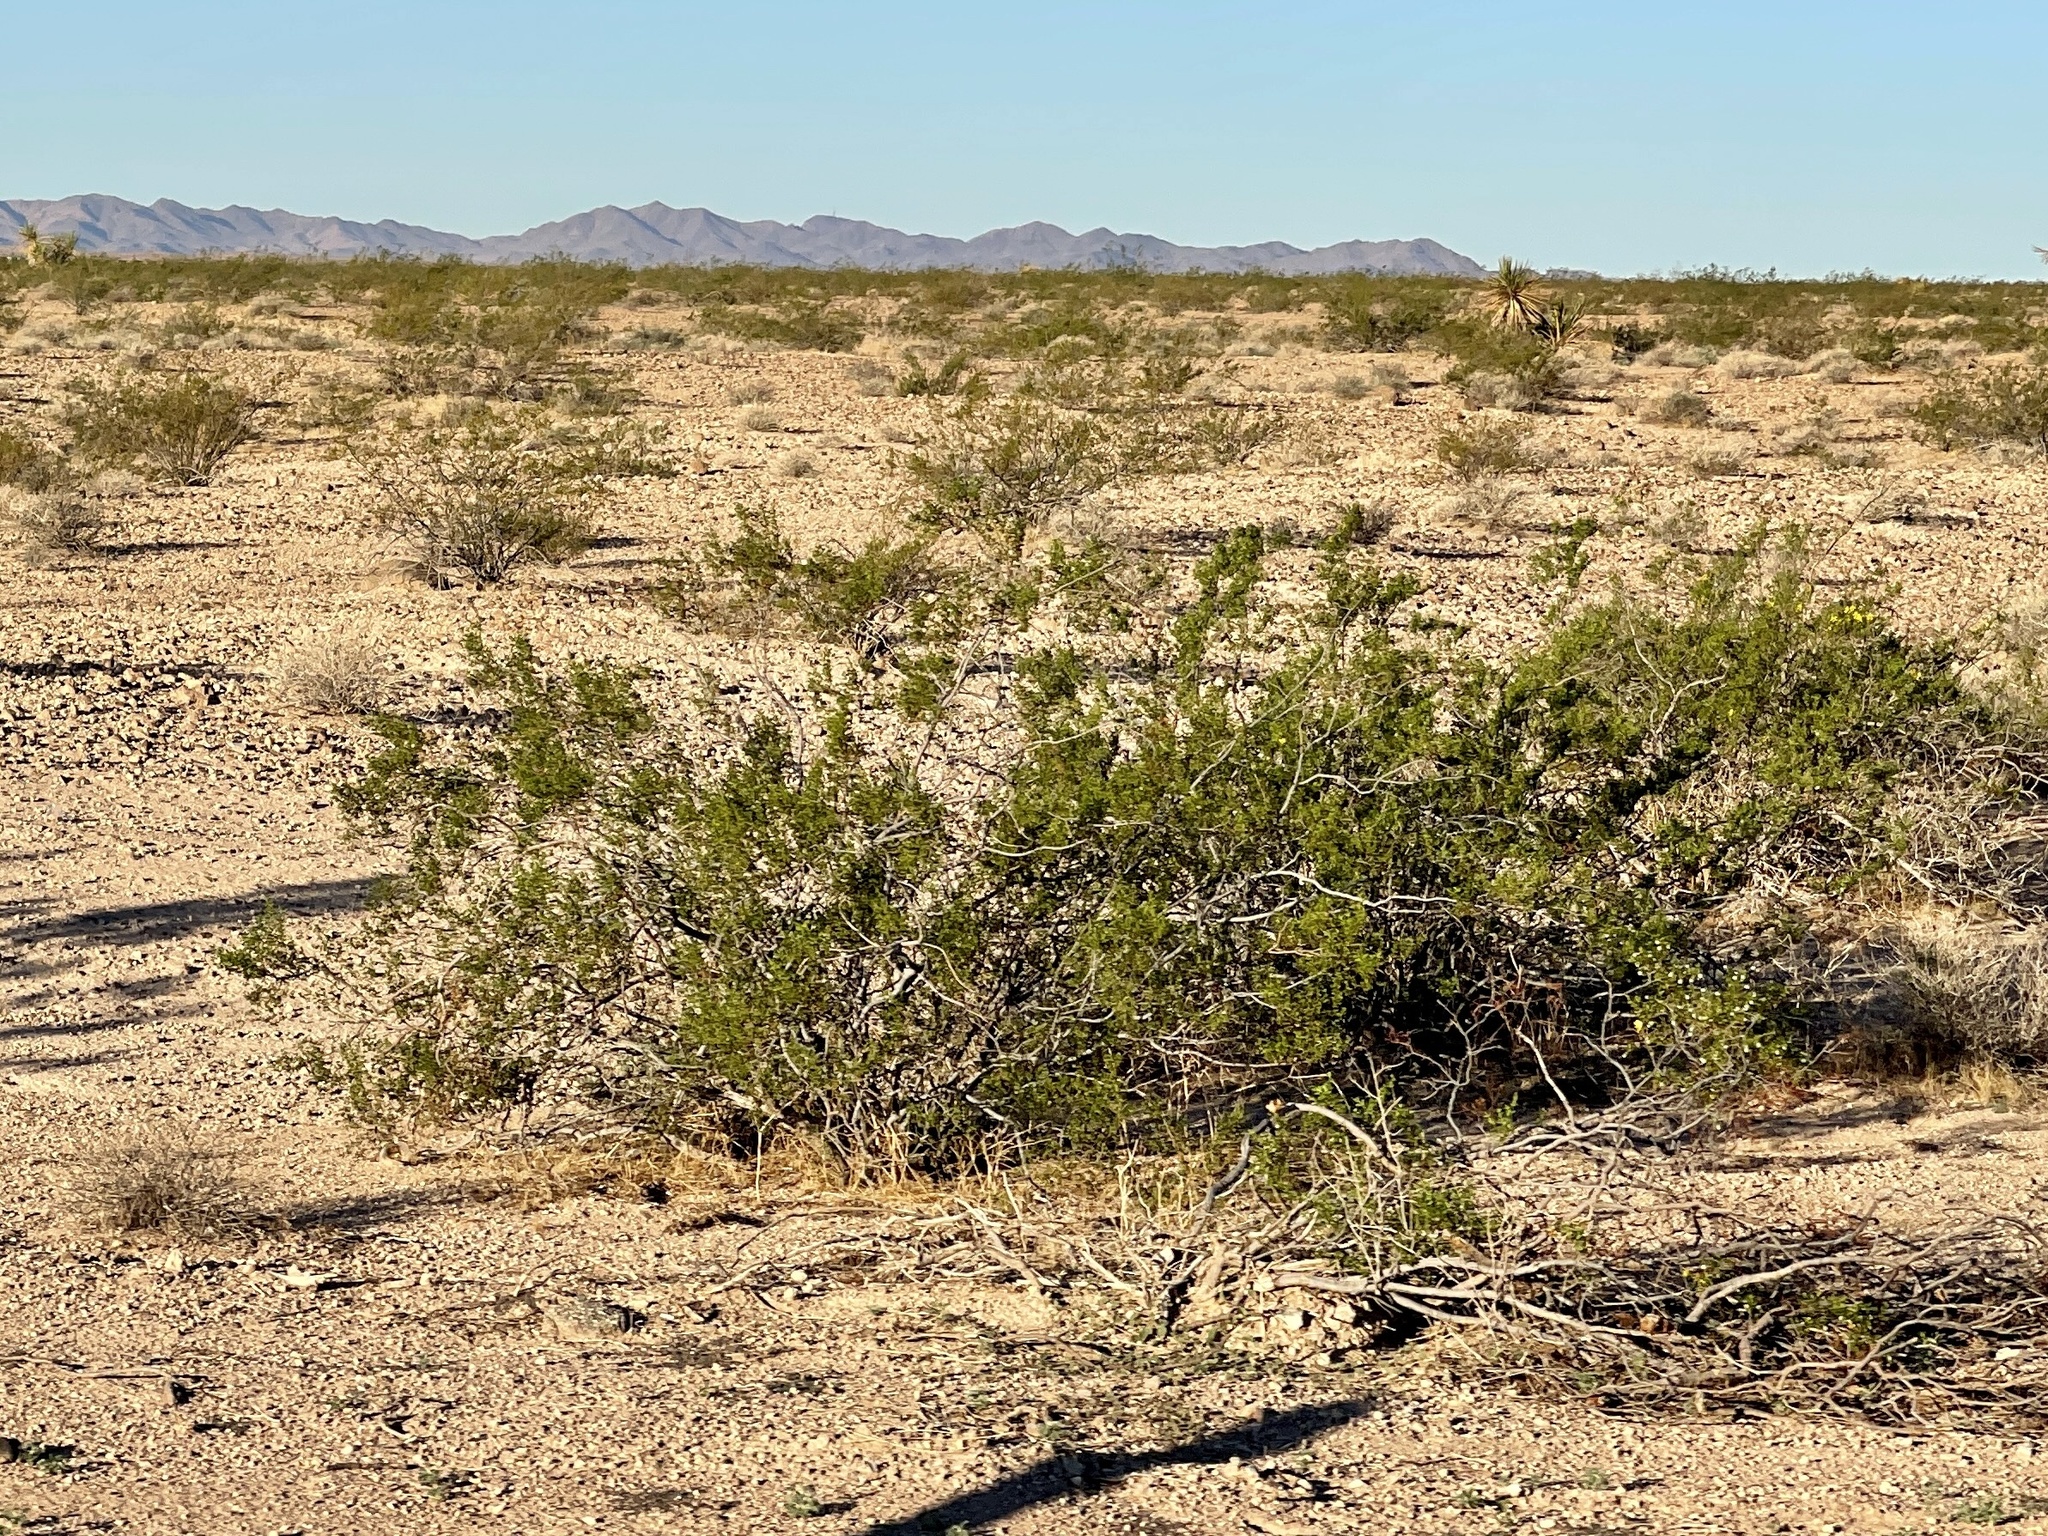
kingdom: Plantae
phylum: Tracheophyta
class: Magnoliopsida
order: Zygophyllales
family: Zygophyllaceae
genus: Larrea
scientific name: Larrea tridentata
